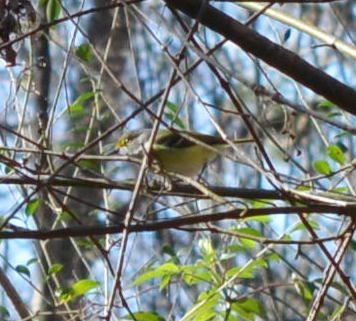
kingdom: Animalia
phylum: Chordata
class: Aves
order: Passeriformes
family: Vireonidae
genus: Vireo
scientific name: Vireo griseus
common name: White-eyed vireo
